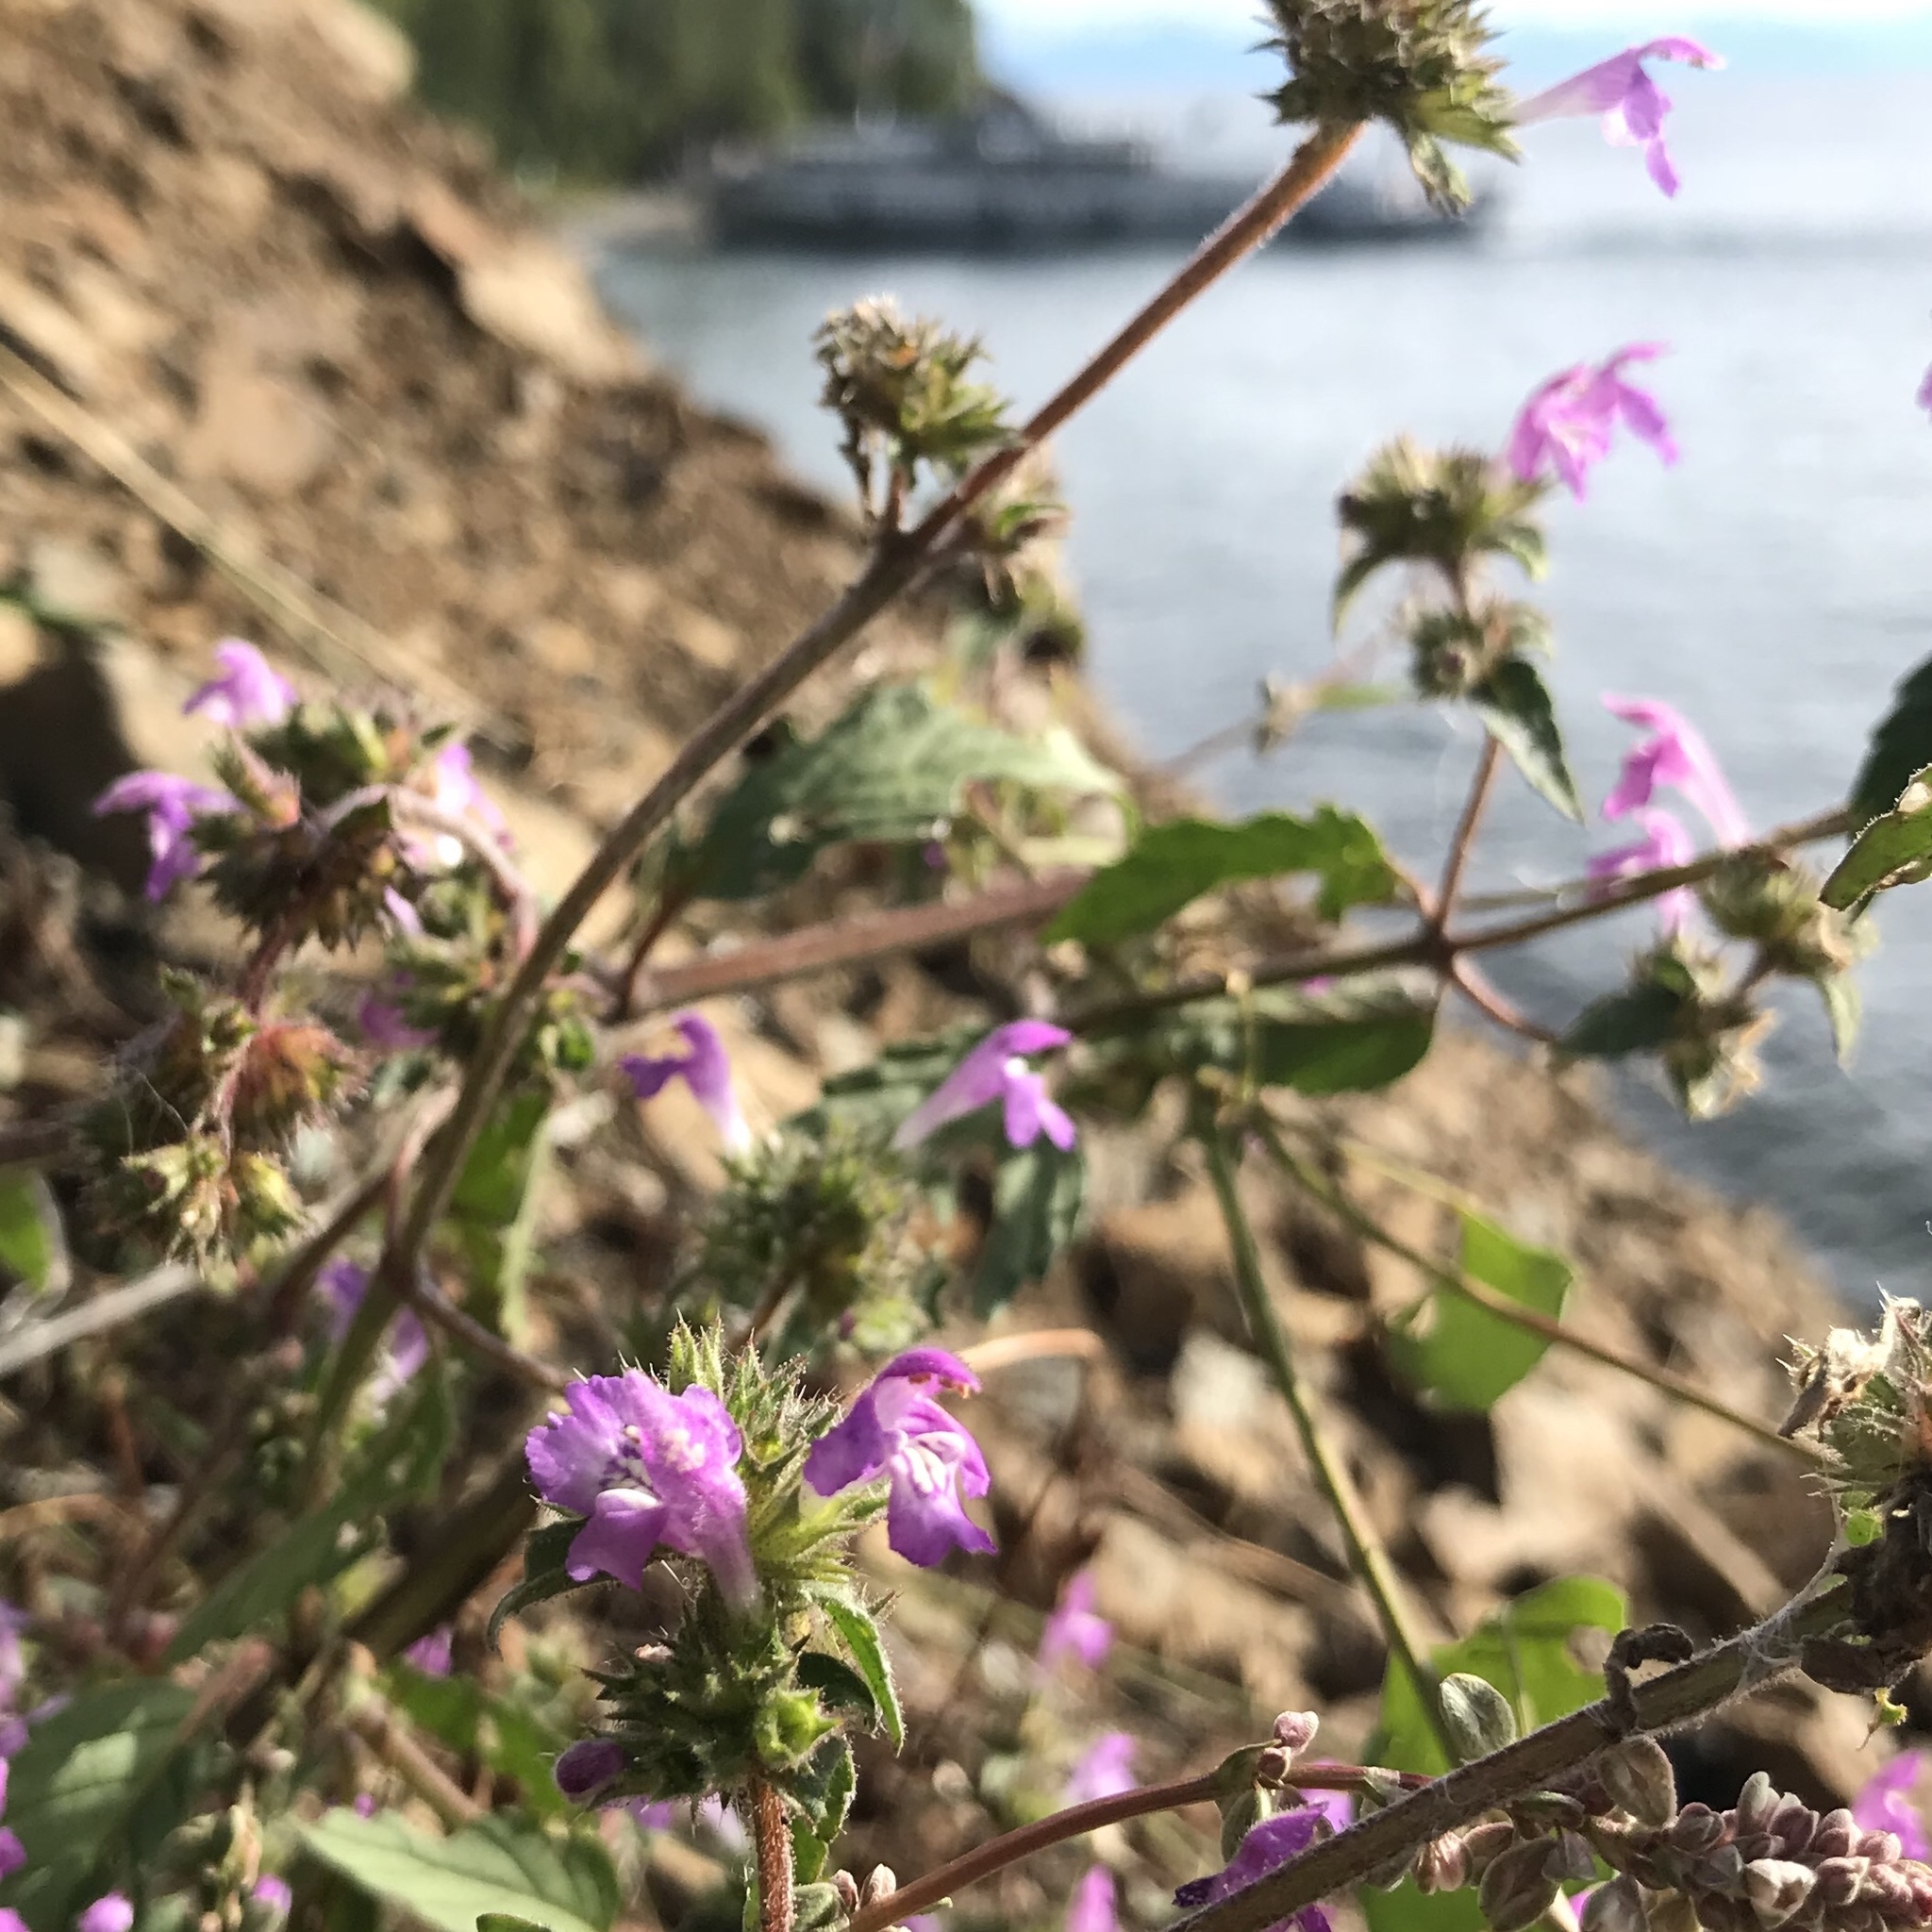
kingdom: Plantae
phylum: Tracheophyta
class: Magnoliopsida
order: Lamiales
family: Lamiaceae
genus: Galeopsis
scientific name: Galeopsis ladanum
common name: Broad-leaved hemp-nettle
